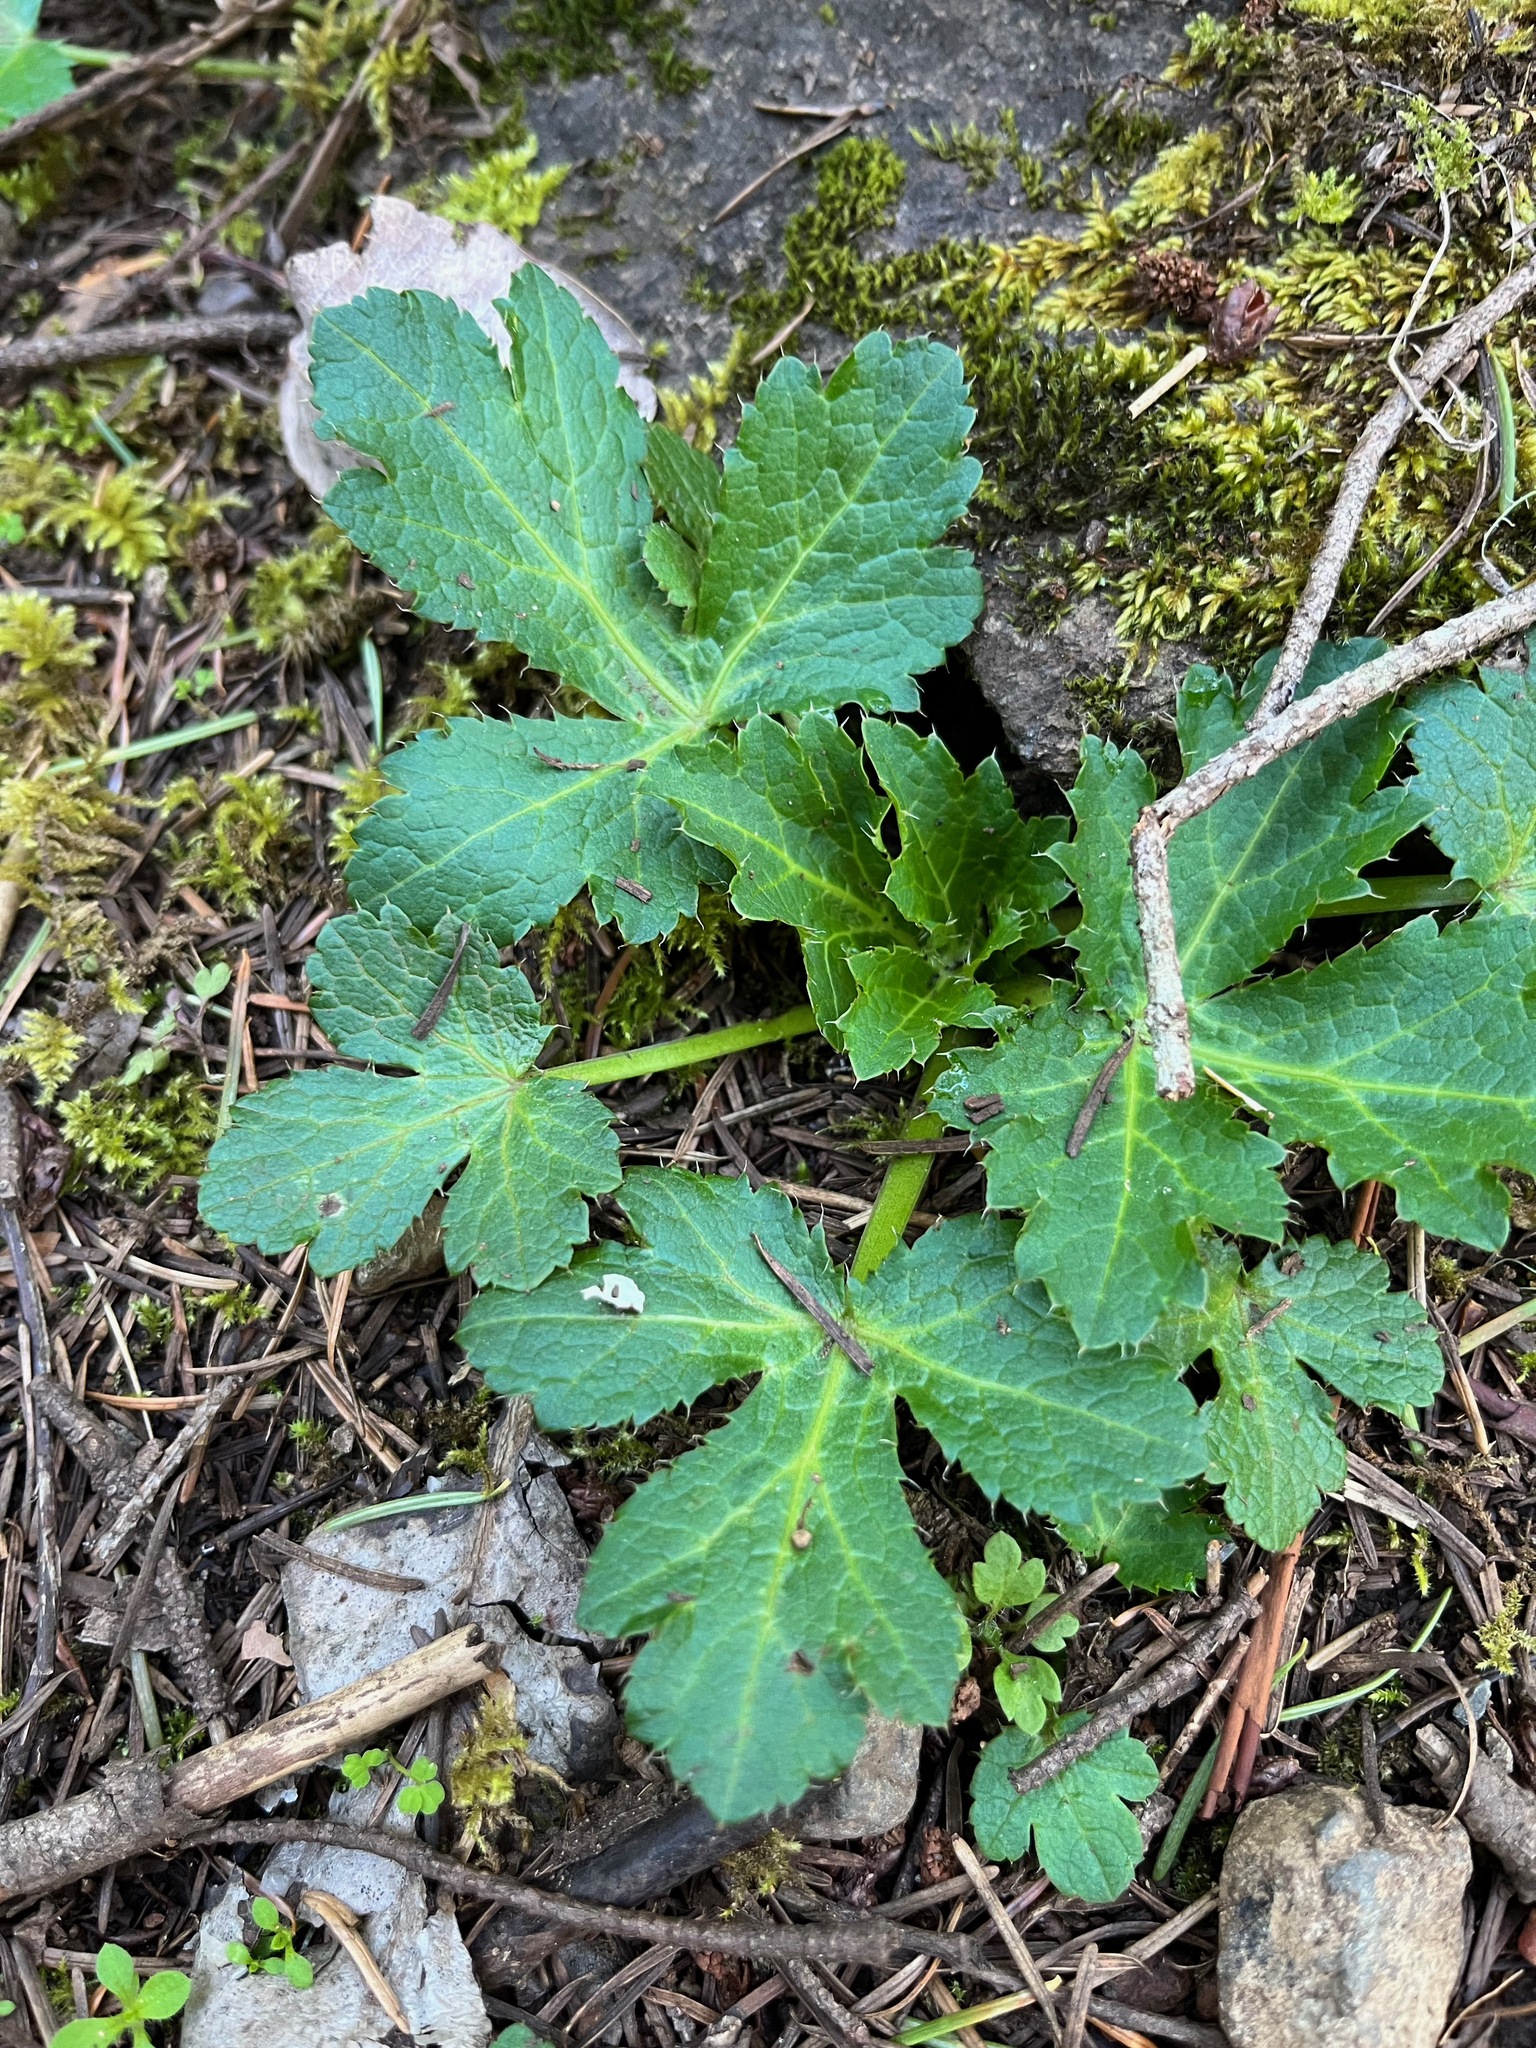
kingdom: Plantae
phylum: Tracheophyta
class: Magnoliopsida
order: Apiales
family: Apiaceae
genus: Sanicula
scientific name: Sanicula crassicaulis
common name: Western snakeroot
